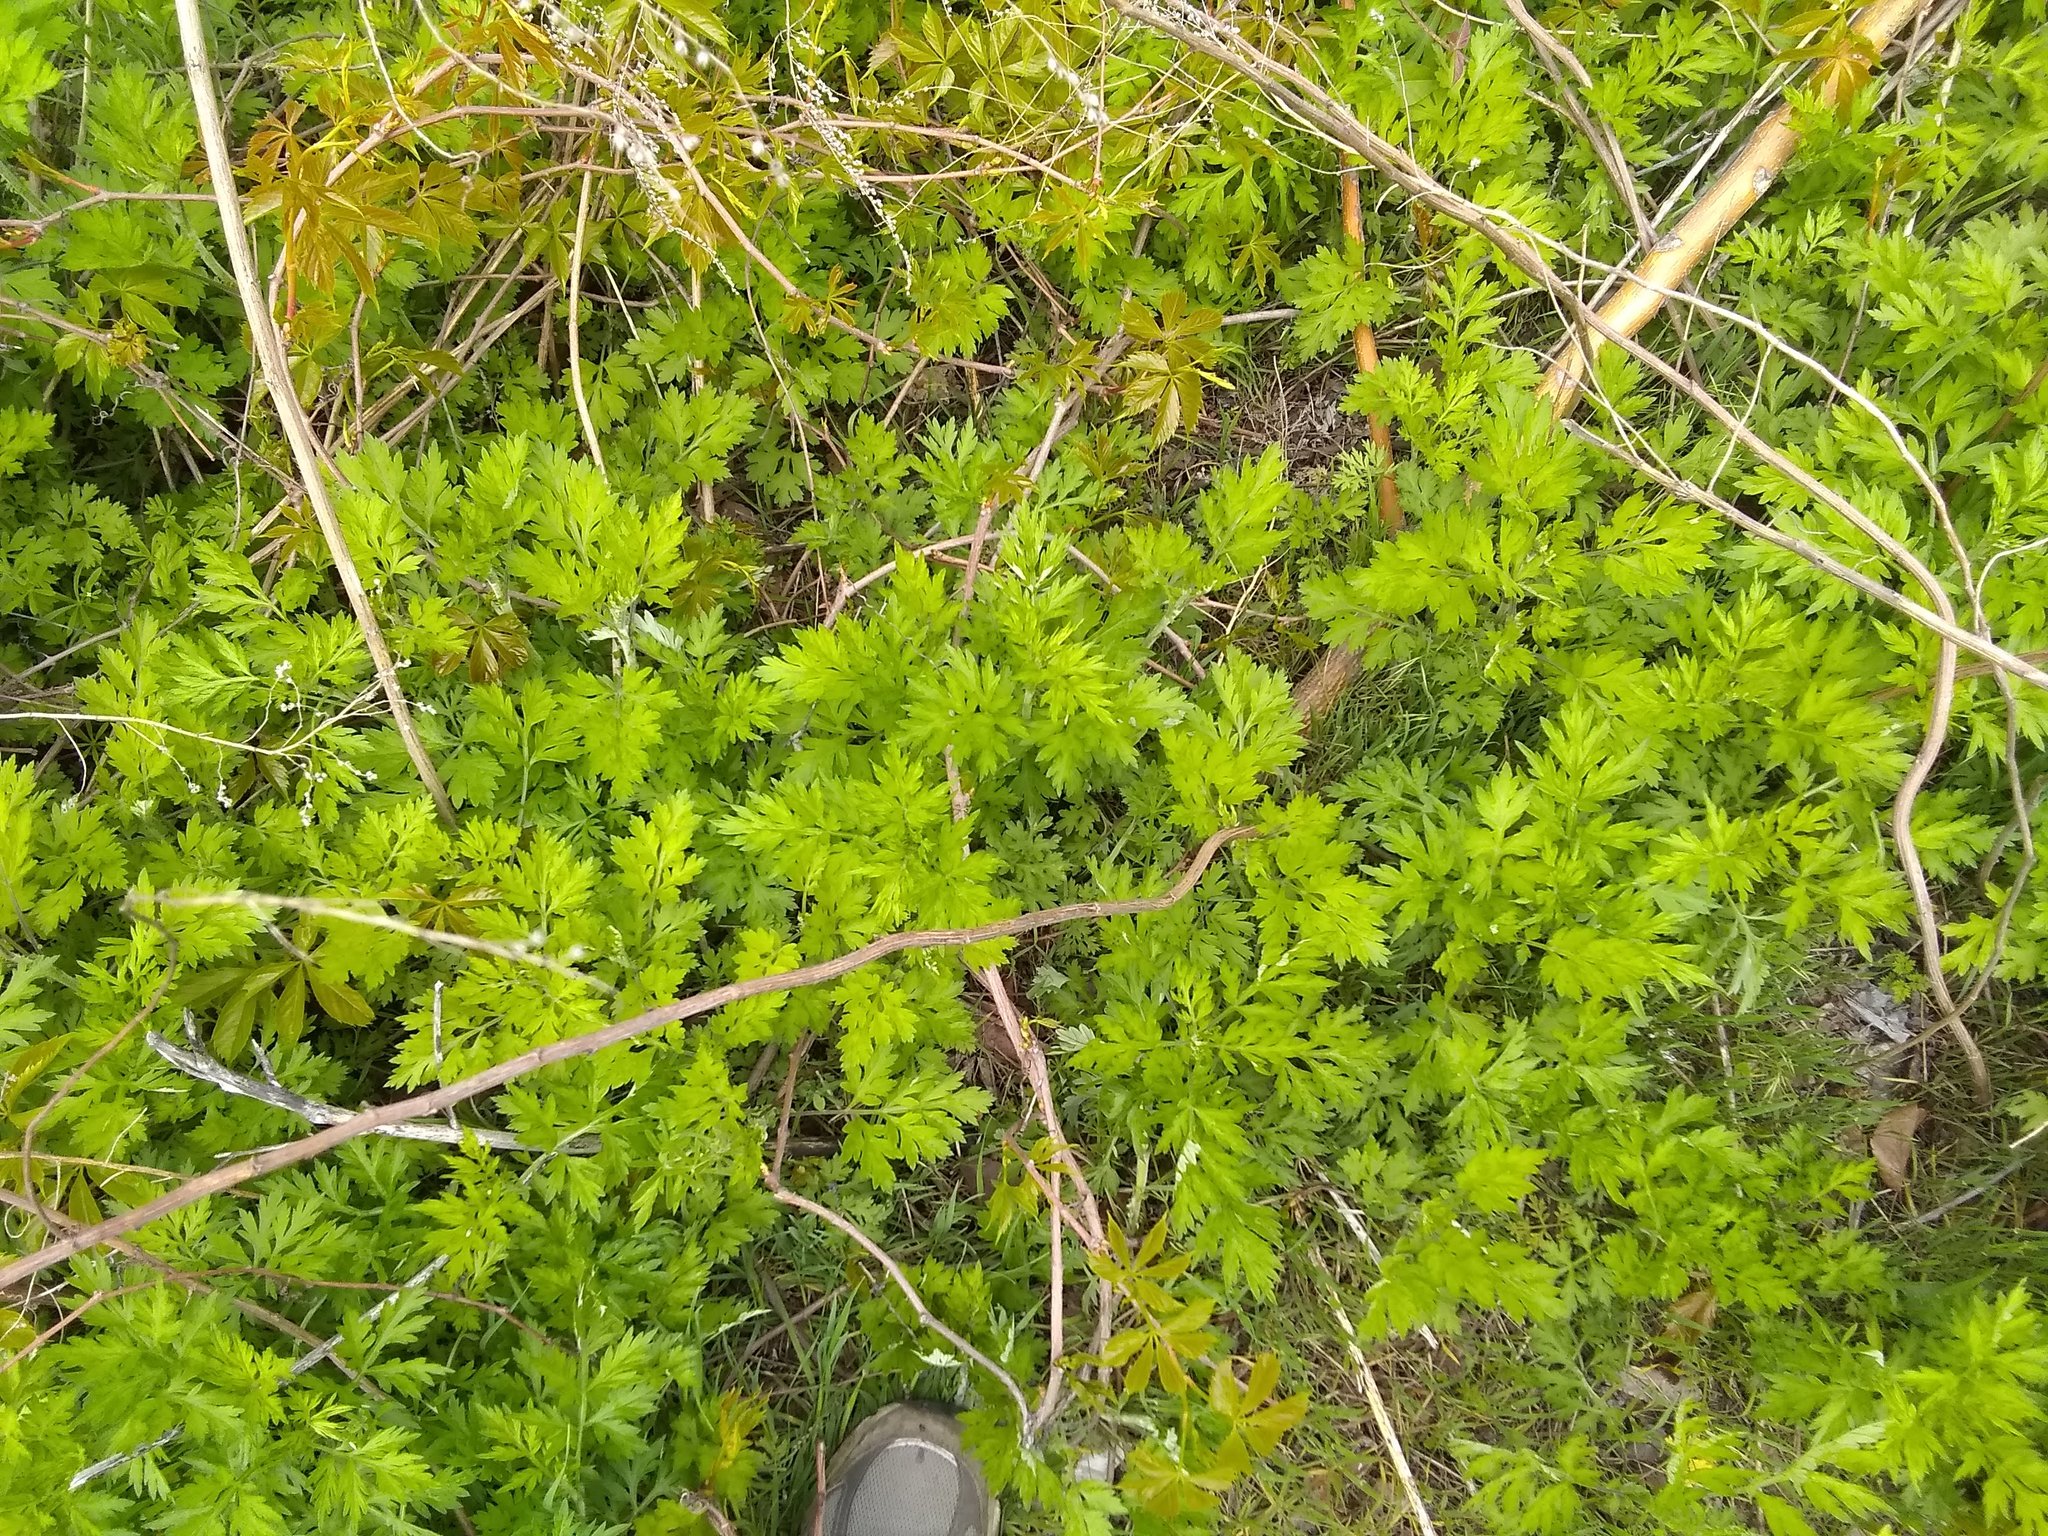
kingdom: Plantae
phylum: Tracheophyta
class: Magnoliopsida
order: Asterales
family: Asteraceae
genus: Artemisia
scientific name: Artemisia vulgaris
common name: Mugwort
